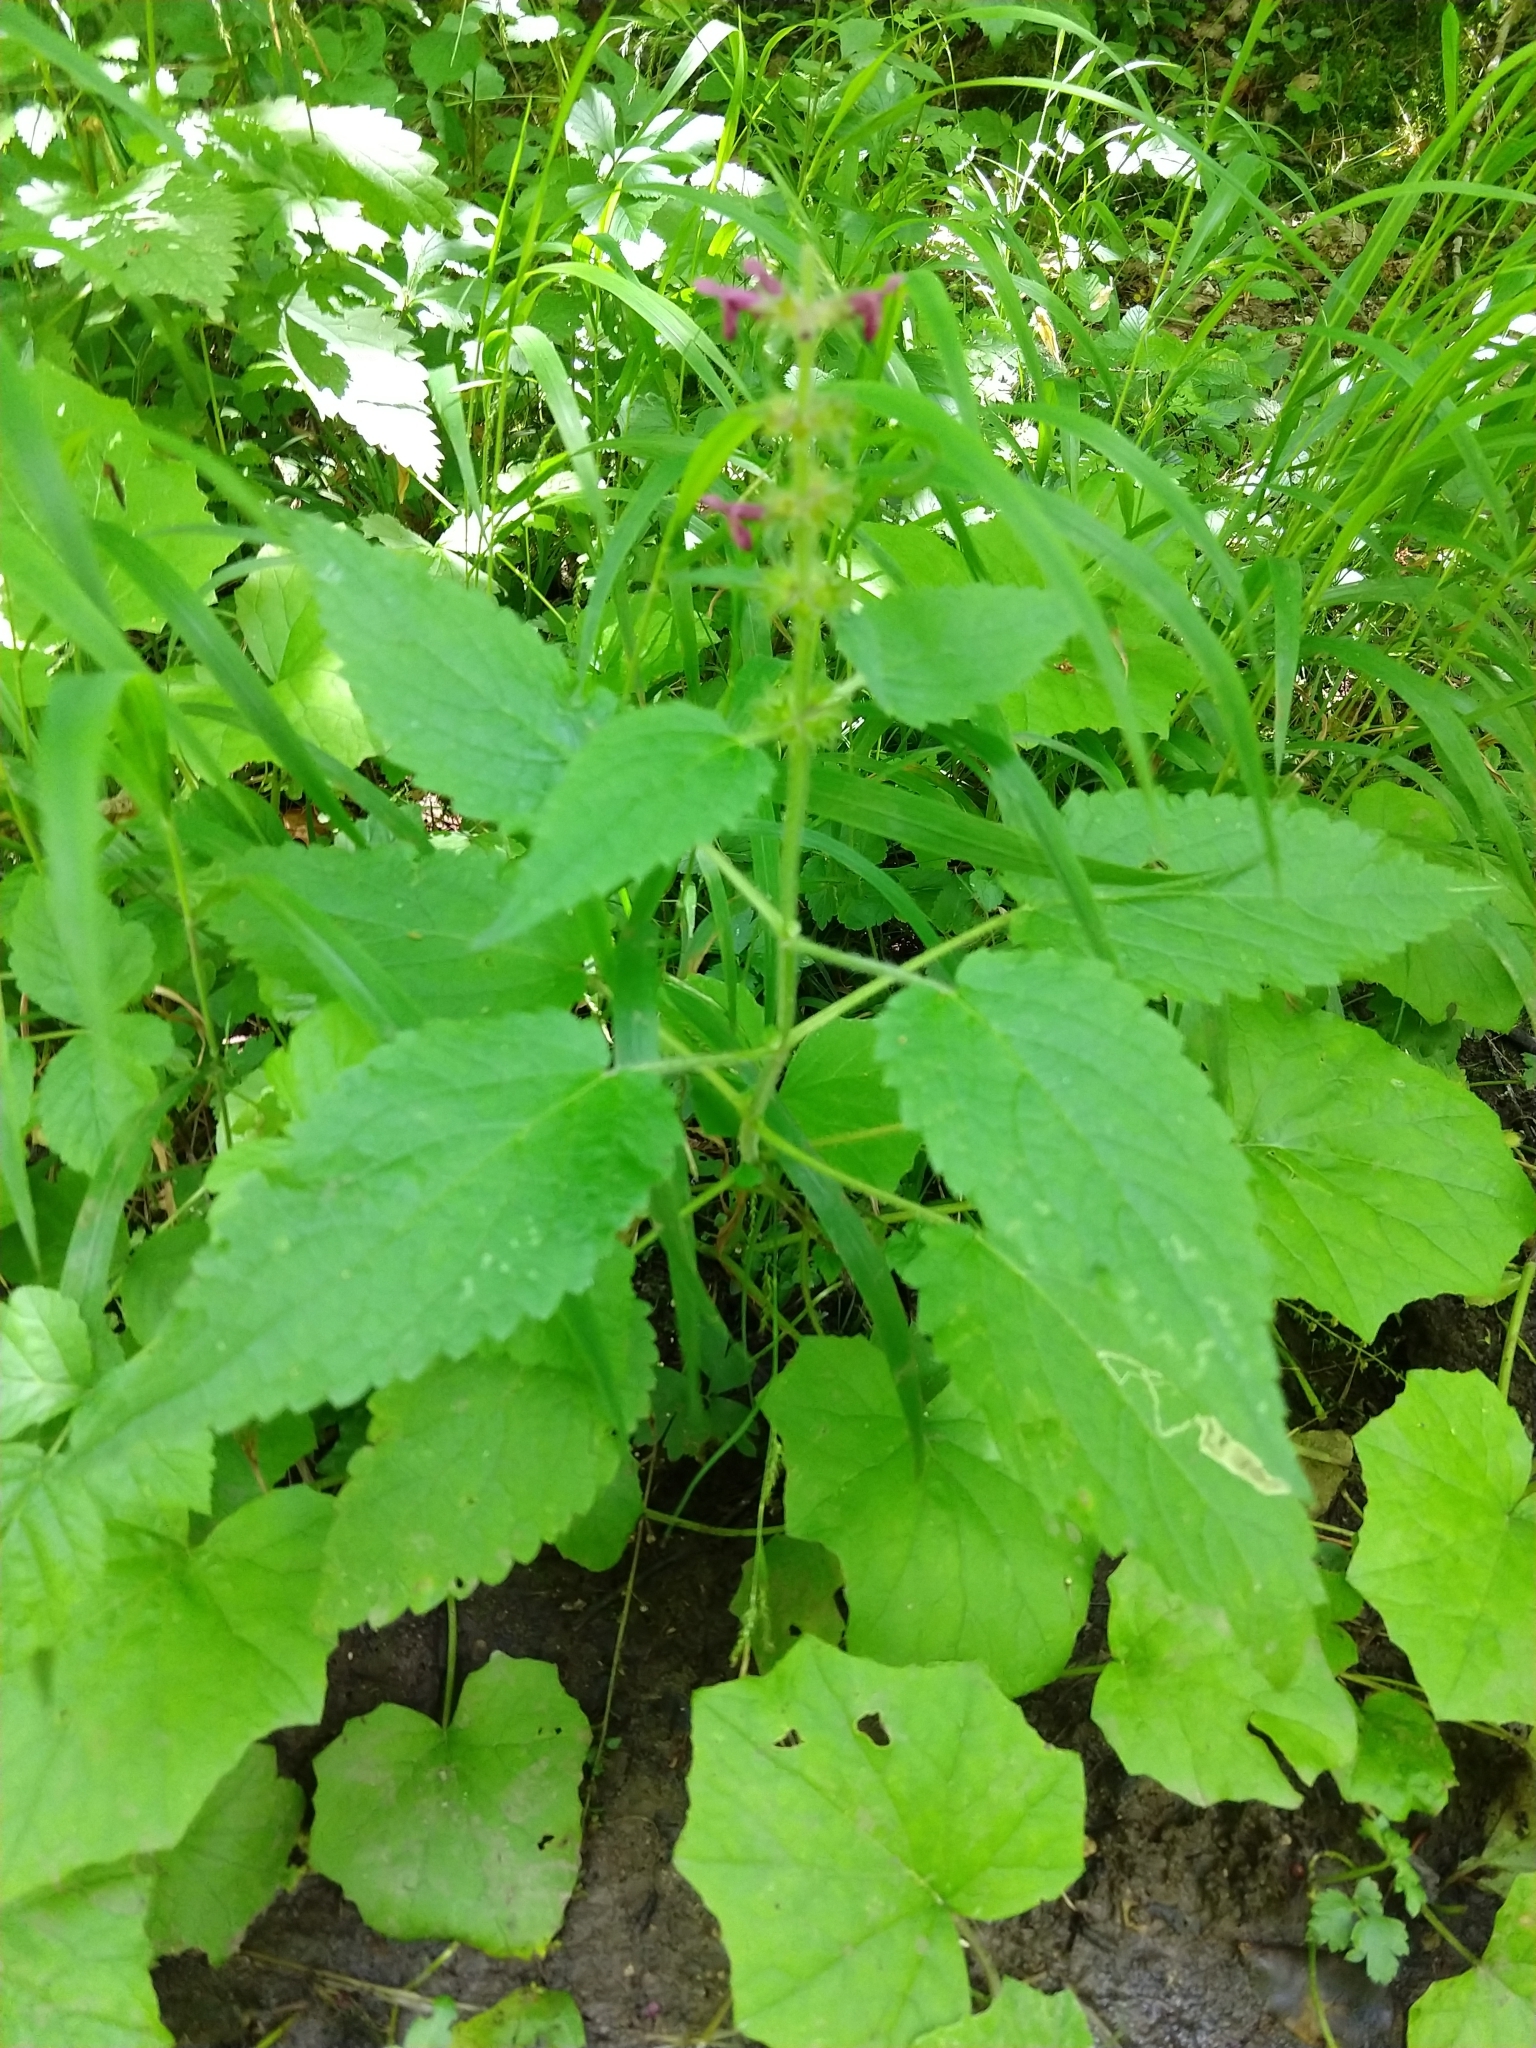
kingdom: Plantae
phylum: Tracheophyta
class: Magnoliopsida
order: Lamiales
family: Lamiaceae
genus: Stachys
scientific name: Stachys sylvatica
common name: Hedge woundwort
